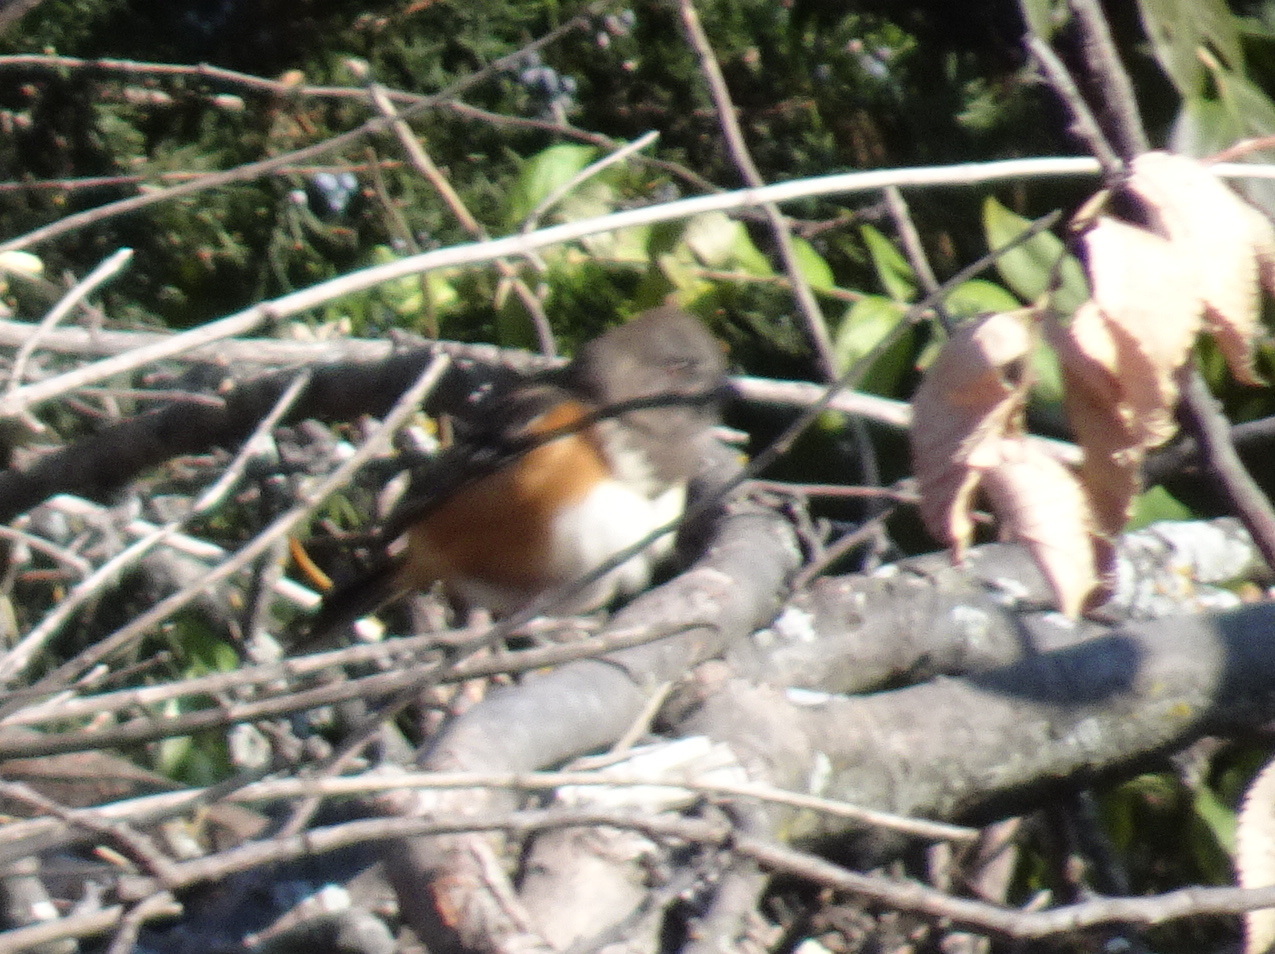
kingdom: Animalia
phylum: Chordata
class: Aves
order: Passeriformes
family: Passerellidae
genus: Pipilo
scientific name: Pipilo maculatus
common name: Spotted towhee
